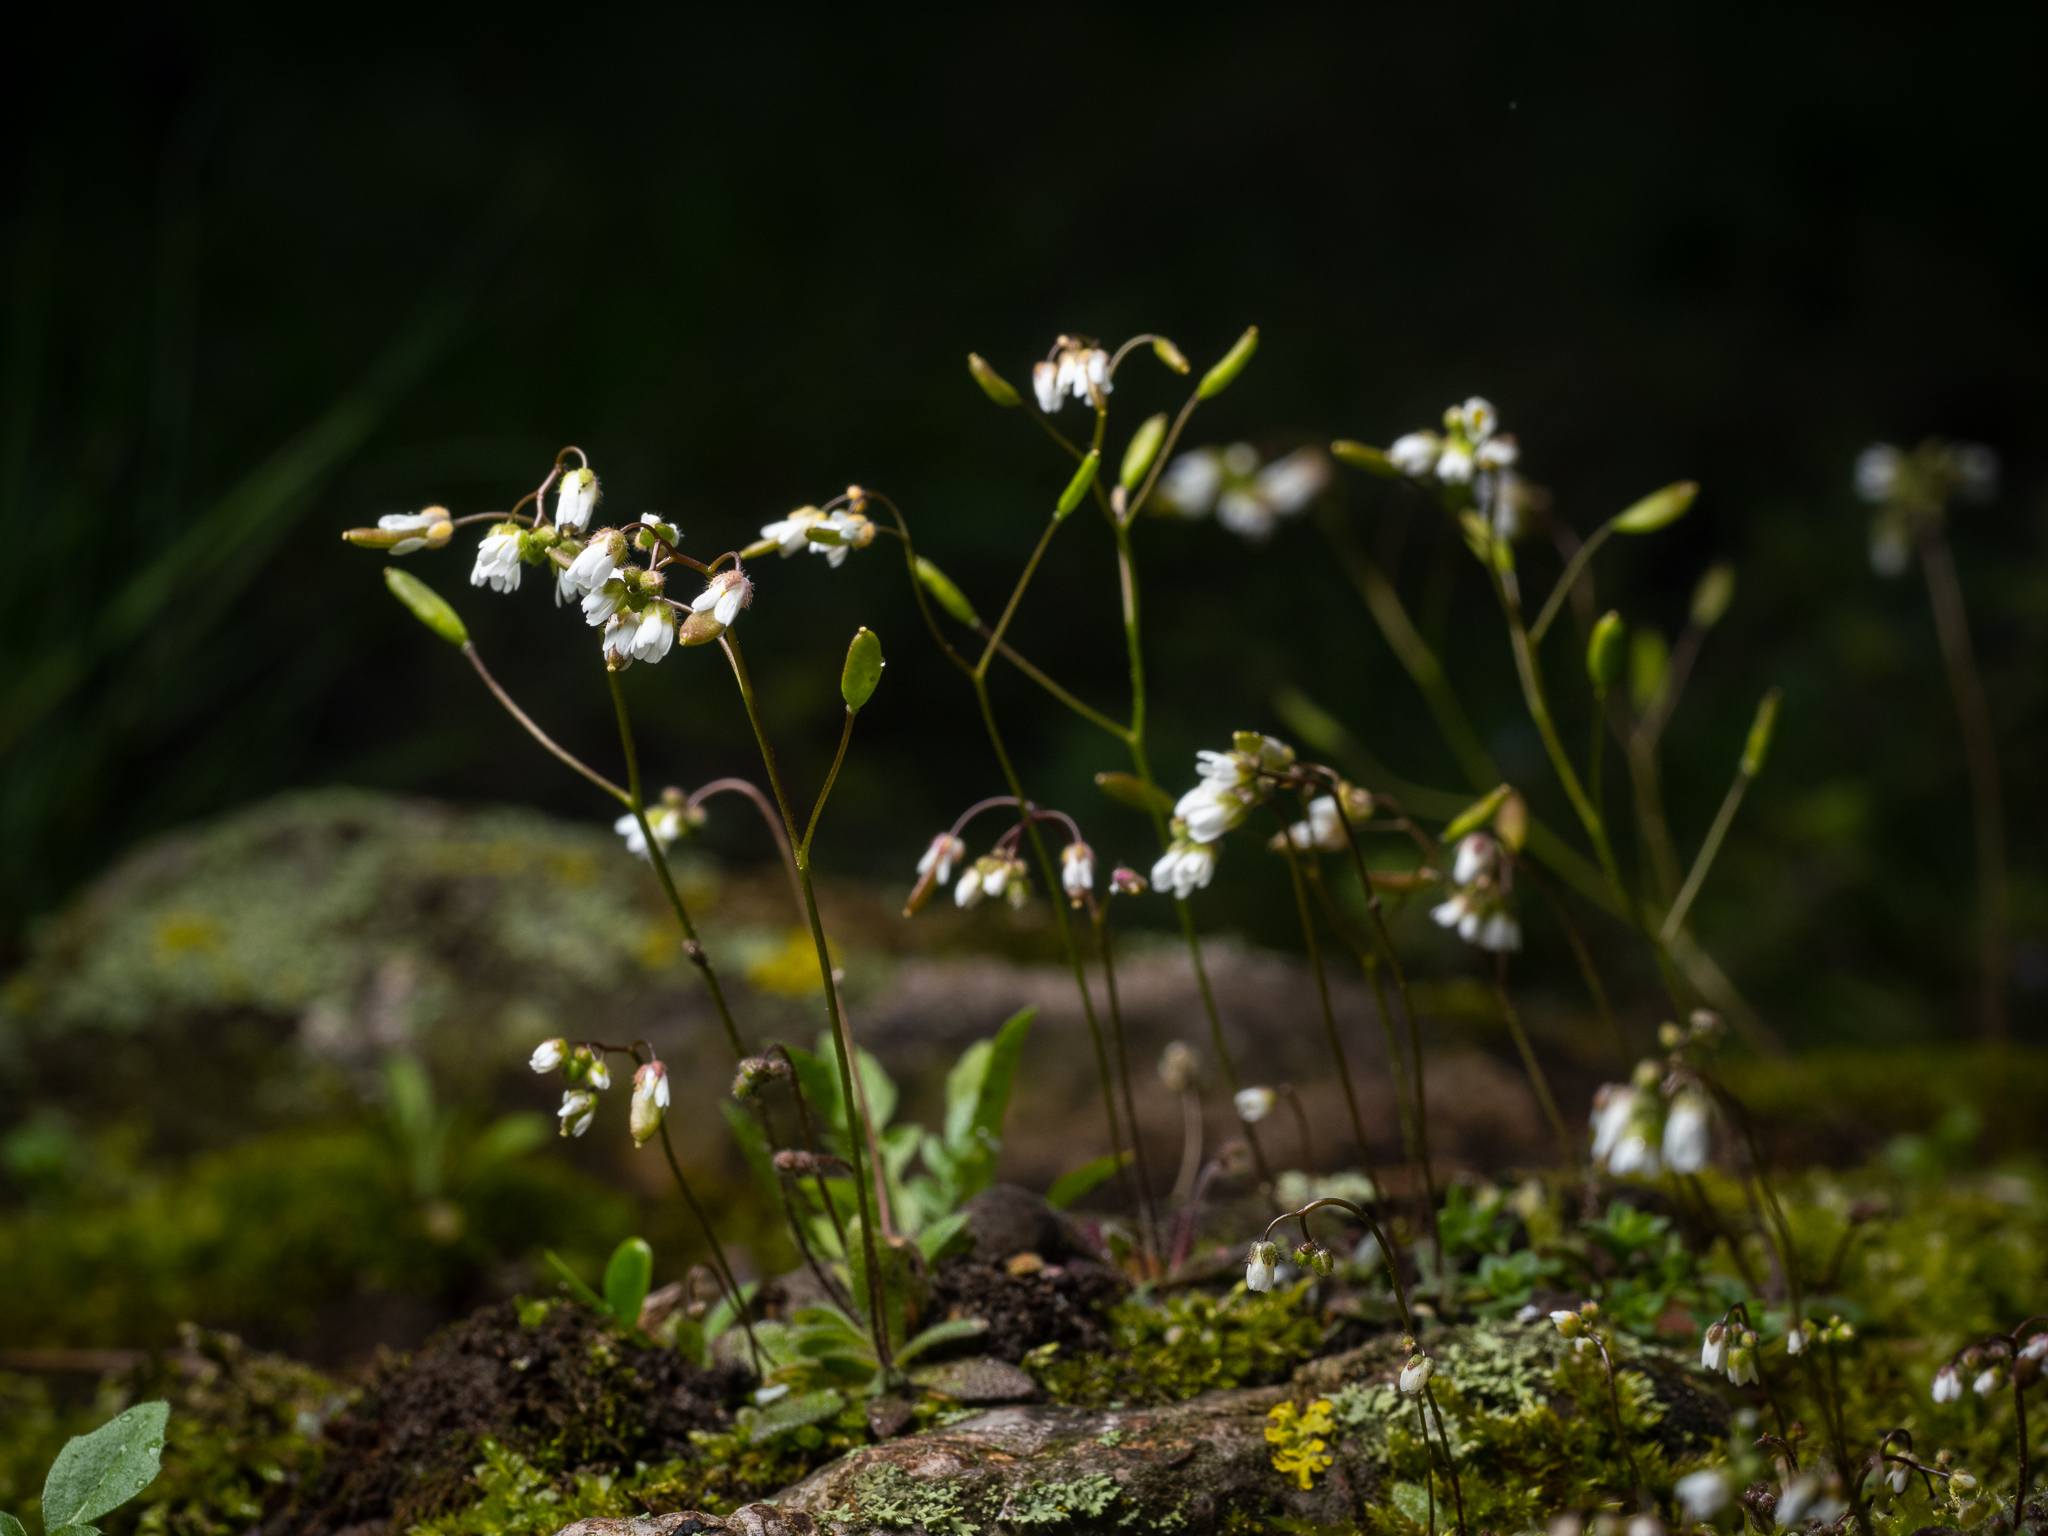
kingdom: Plantae
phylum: Tracheophyta
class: Magnoliopsida
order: Brassicales
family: Brassicaceae
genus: Draba
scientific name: Draba verna
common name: Spring draba
